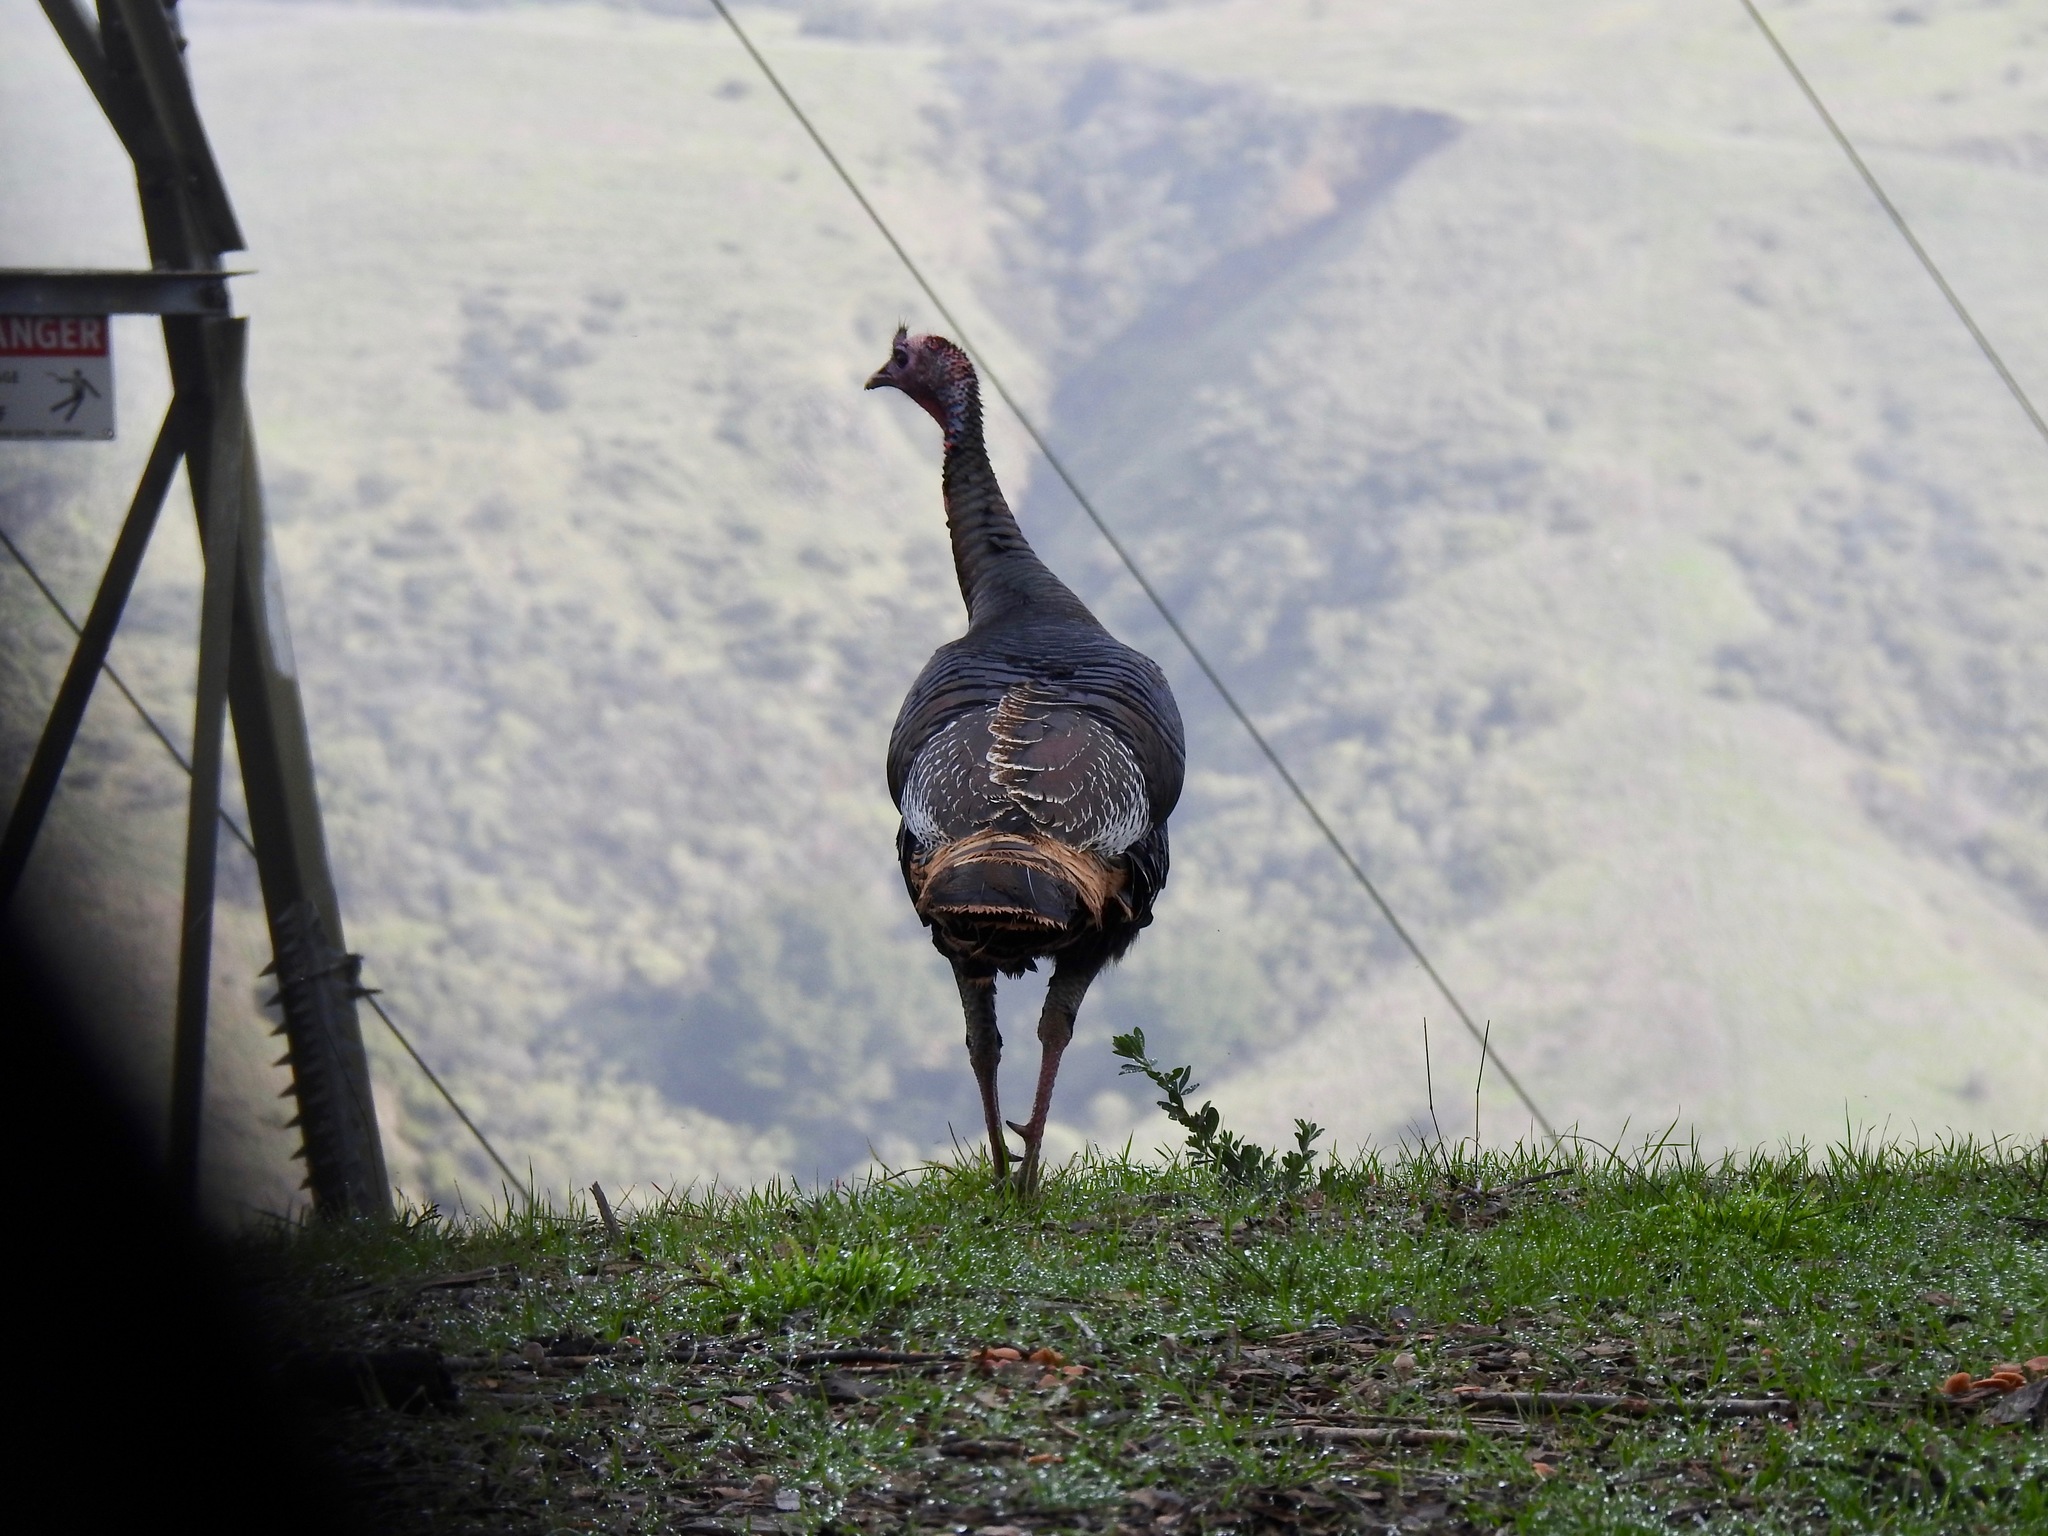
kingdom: Animalia
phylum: Chordata
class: Aves
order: Galliformes
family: Phasianidae
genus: Meleagris
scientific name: Meleagris gallopavo
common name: Wild turkey
